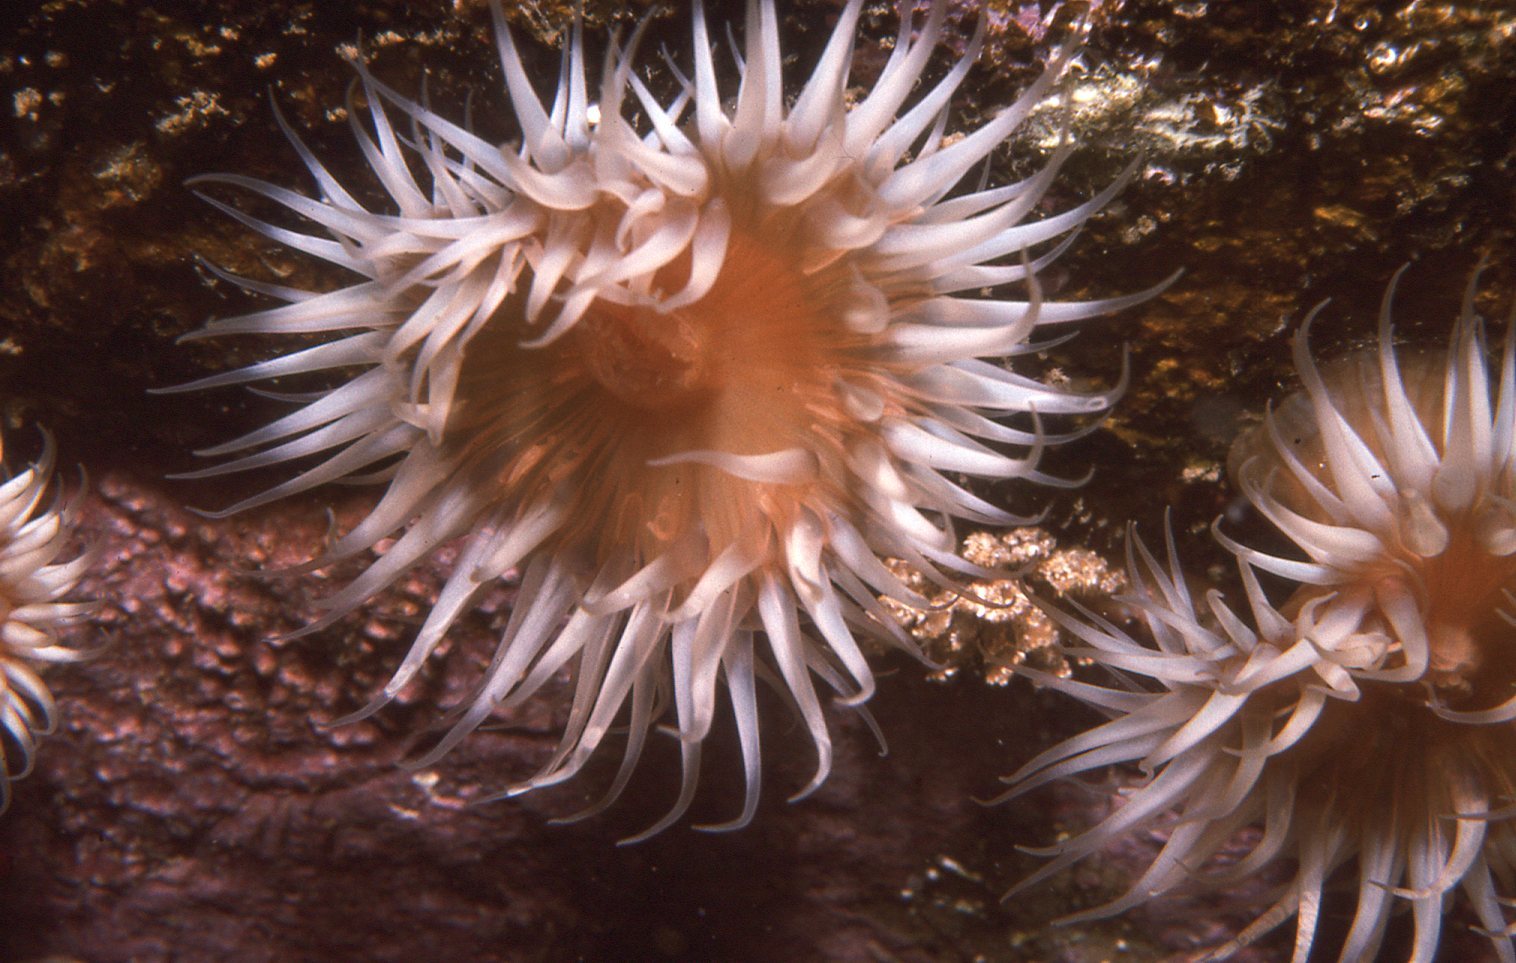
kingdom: Animalia
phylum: Cnidaria
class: Anthozoa
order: Actiniaria
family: Sagartiidae
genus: Anthothoe
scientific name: Anthothoe albocincta
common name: Orange striped anemone
